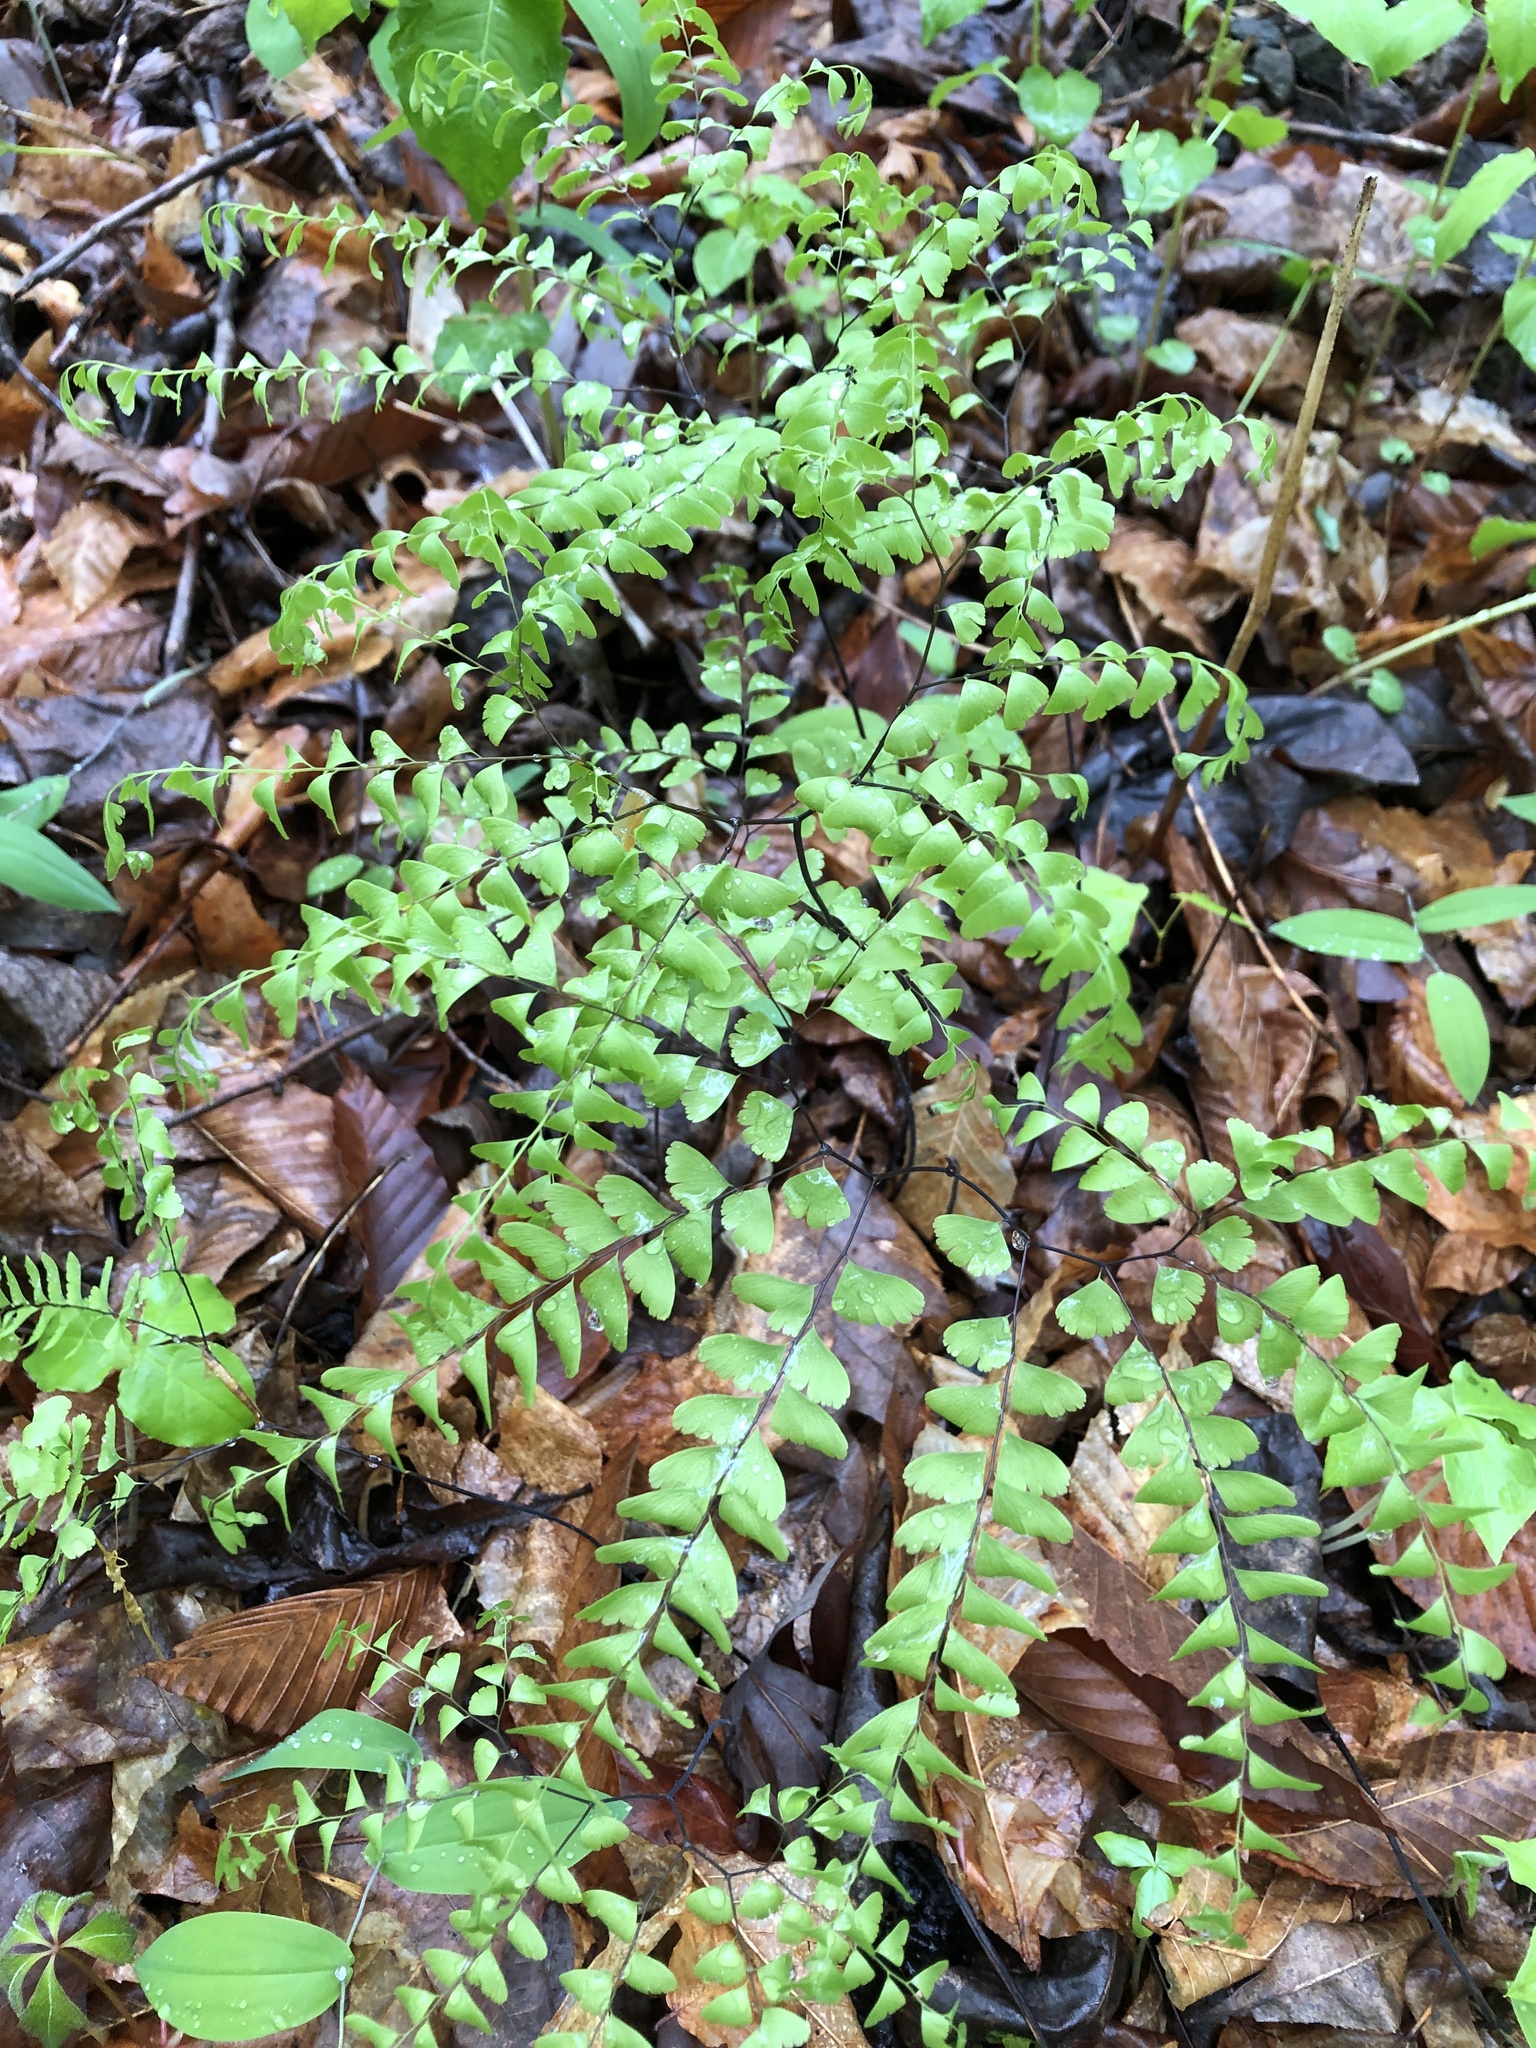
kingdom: Plantae
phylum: Tracheophyta
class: Polypodiopsida
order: Polypodiales
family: Pteridaceae
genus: Adiantum
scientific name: Adiantum pedatum
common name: Five-finger fern
